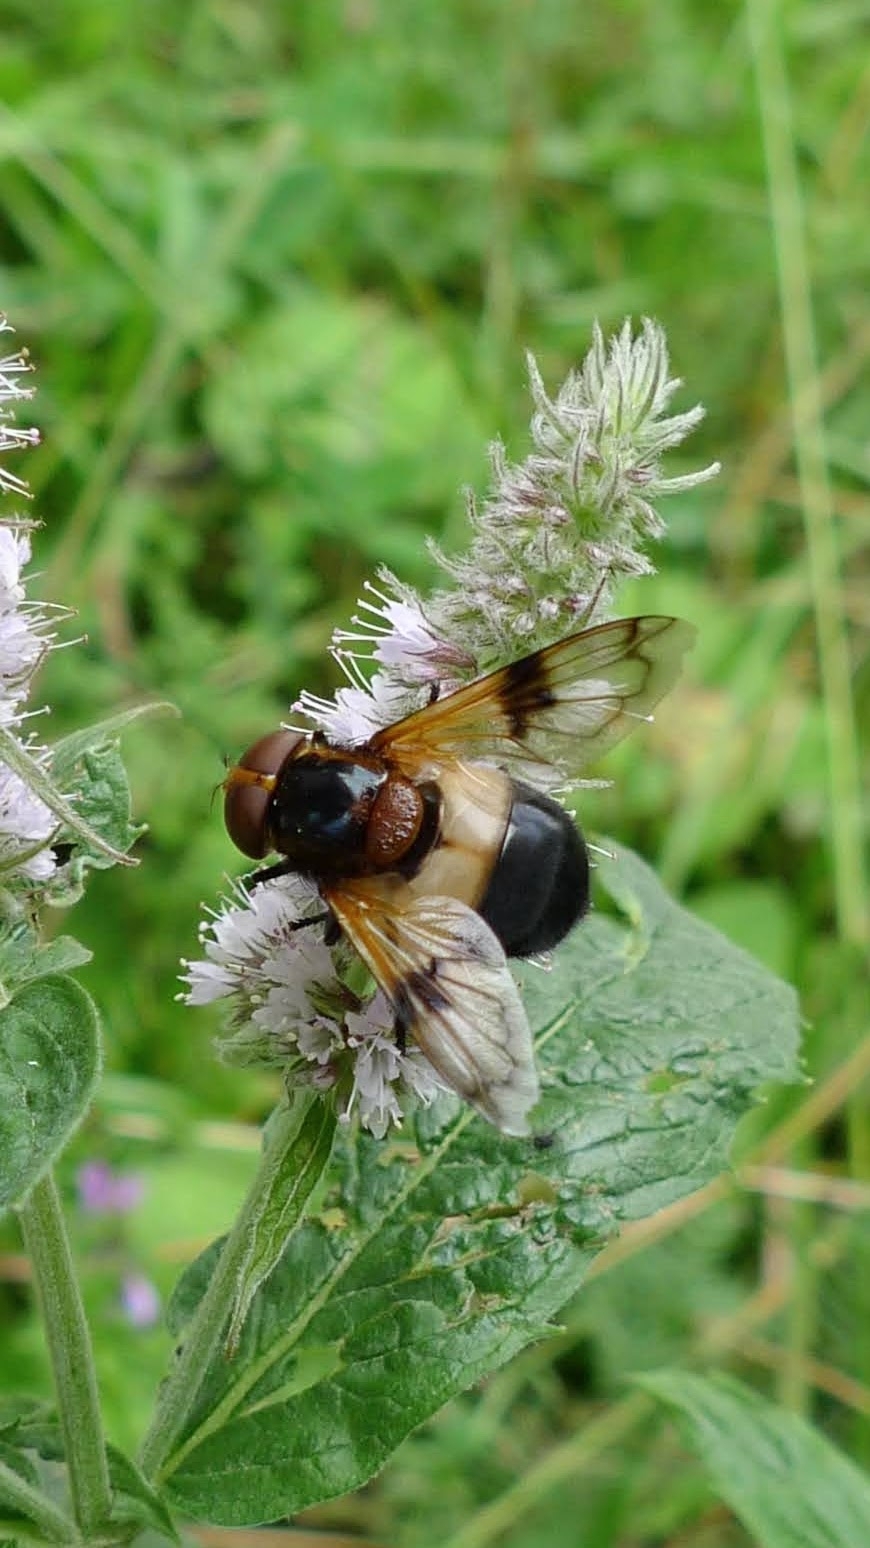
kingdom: Animalia
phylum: Arthropoda
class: Insecta
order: Diptera
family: Syrphidae
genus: Volucella
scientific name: Volucella pellucens
